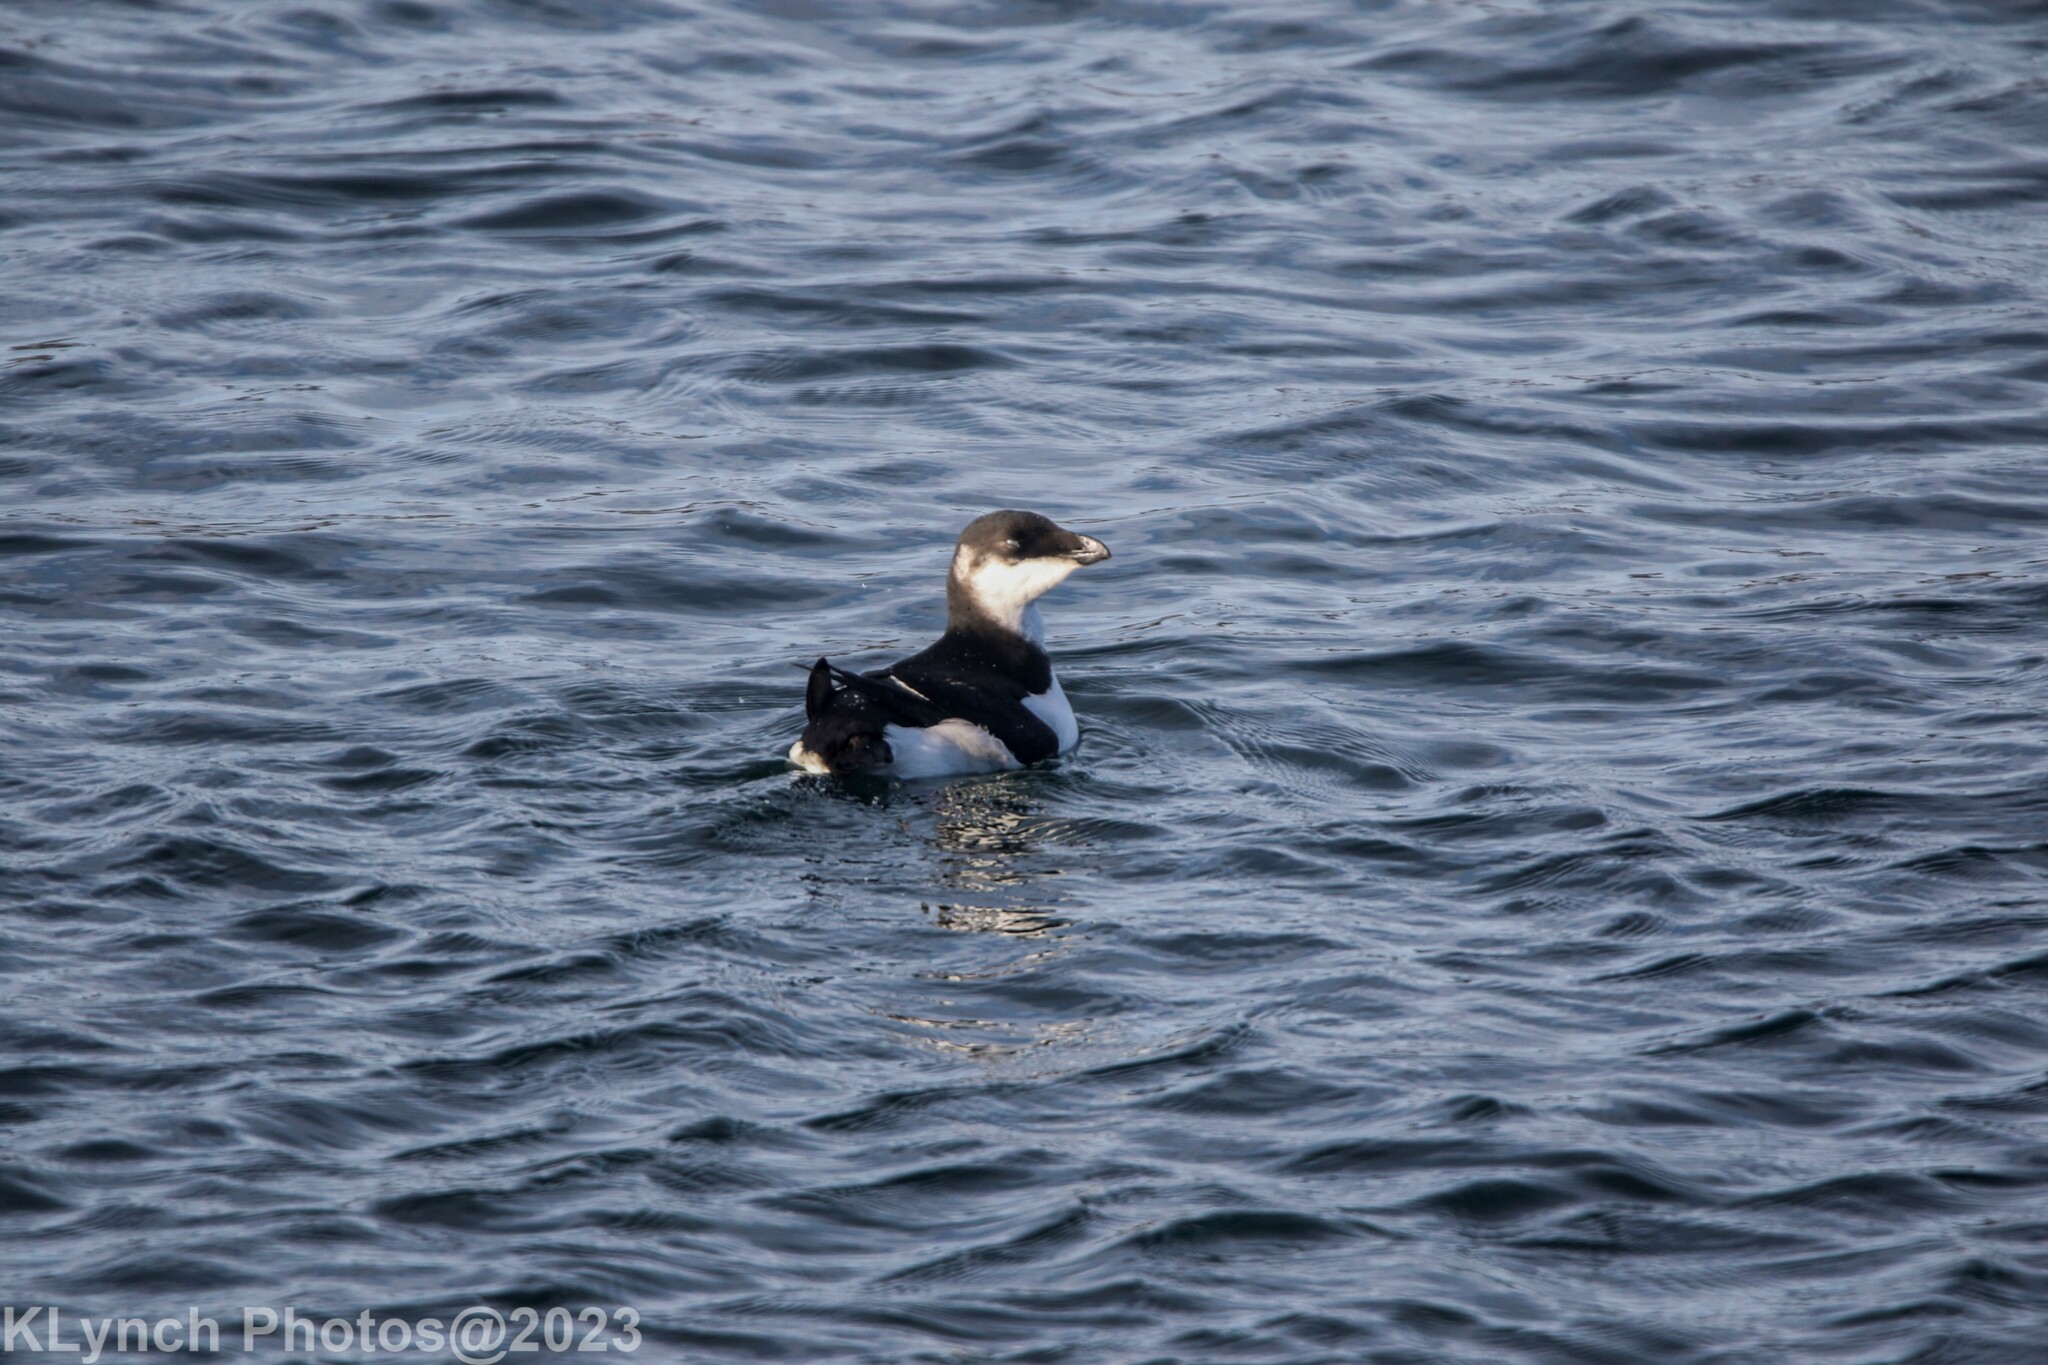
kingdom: Animalia
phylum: Chordata
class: Aves
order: Charadriiformes
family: Alcidae
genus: Alle
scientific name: Alle alle
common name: Little auk
